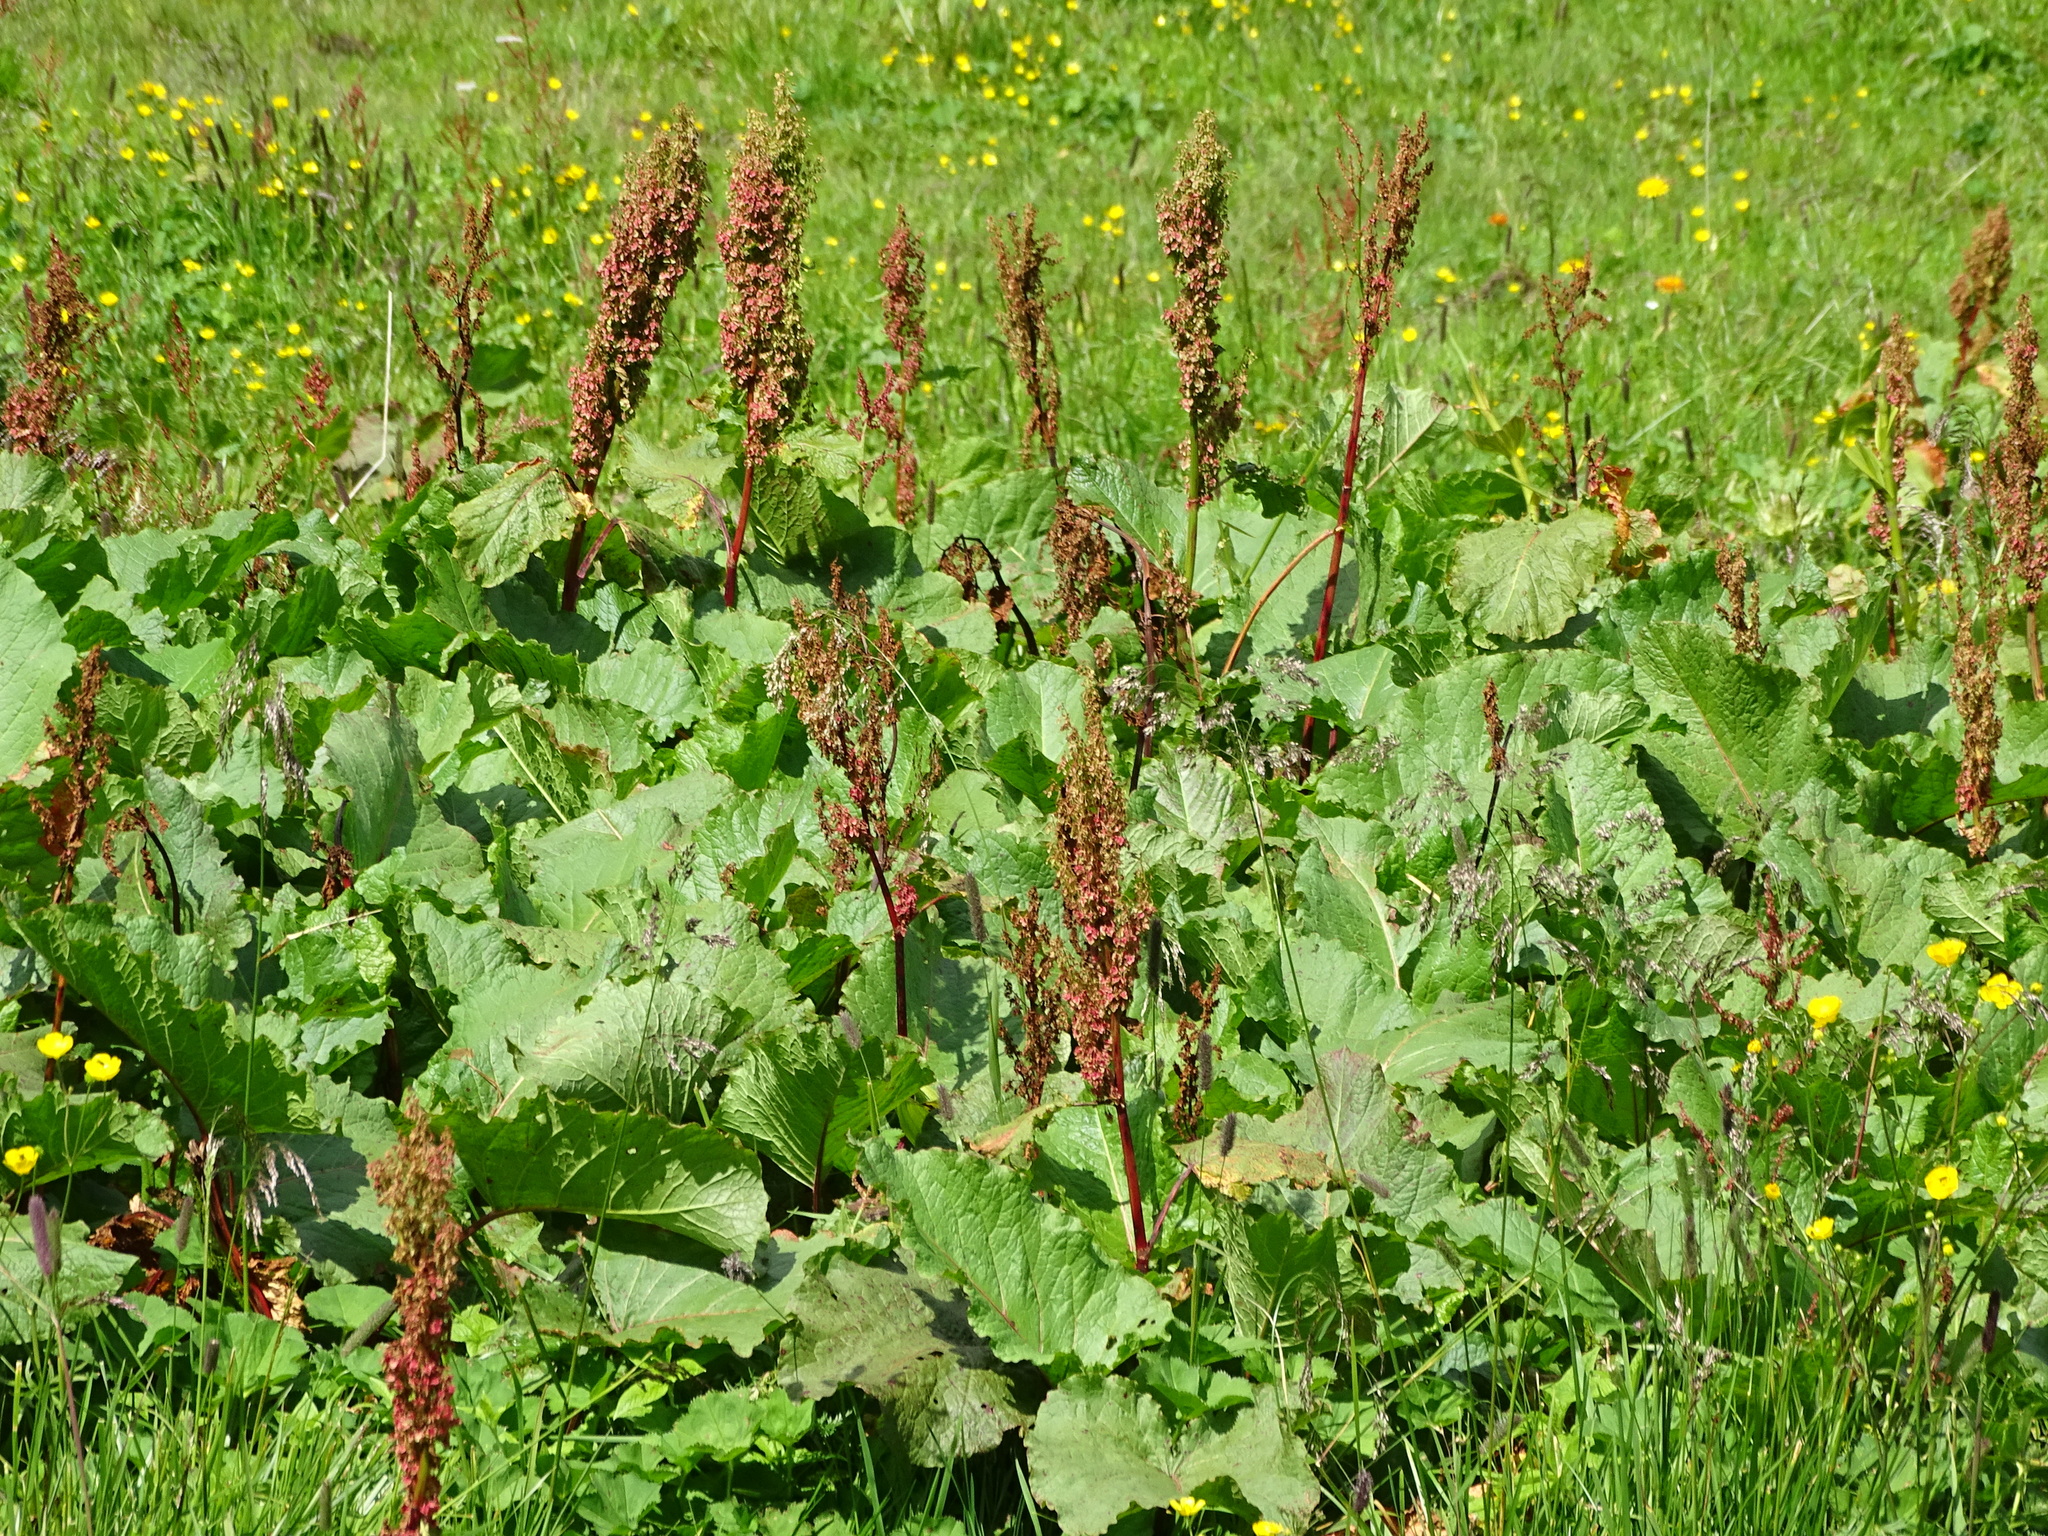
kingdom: Plantae
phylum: Tracheophyta
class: Magnoliopsida
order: Caryophyllales
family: Polygonaceae
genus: Rumex
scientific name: Rumex alpinus
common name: Alpine dock
